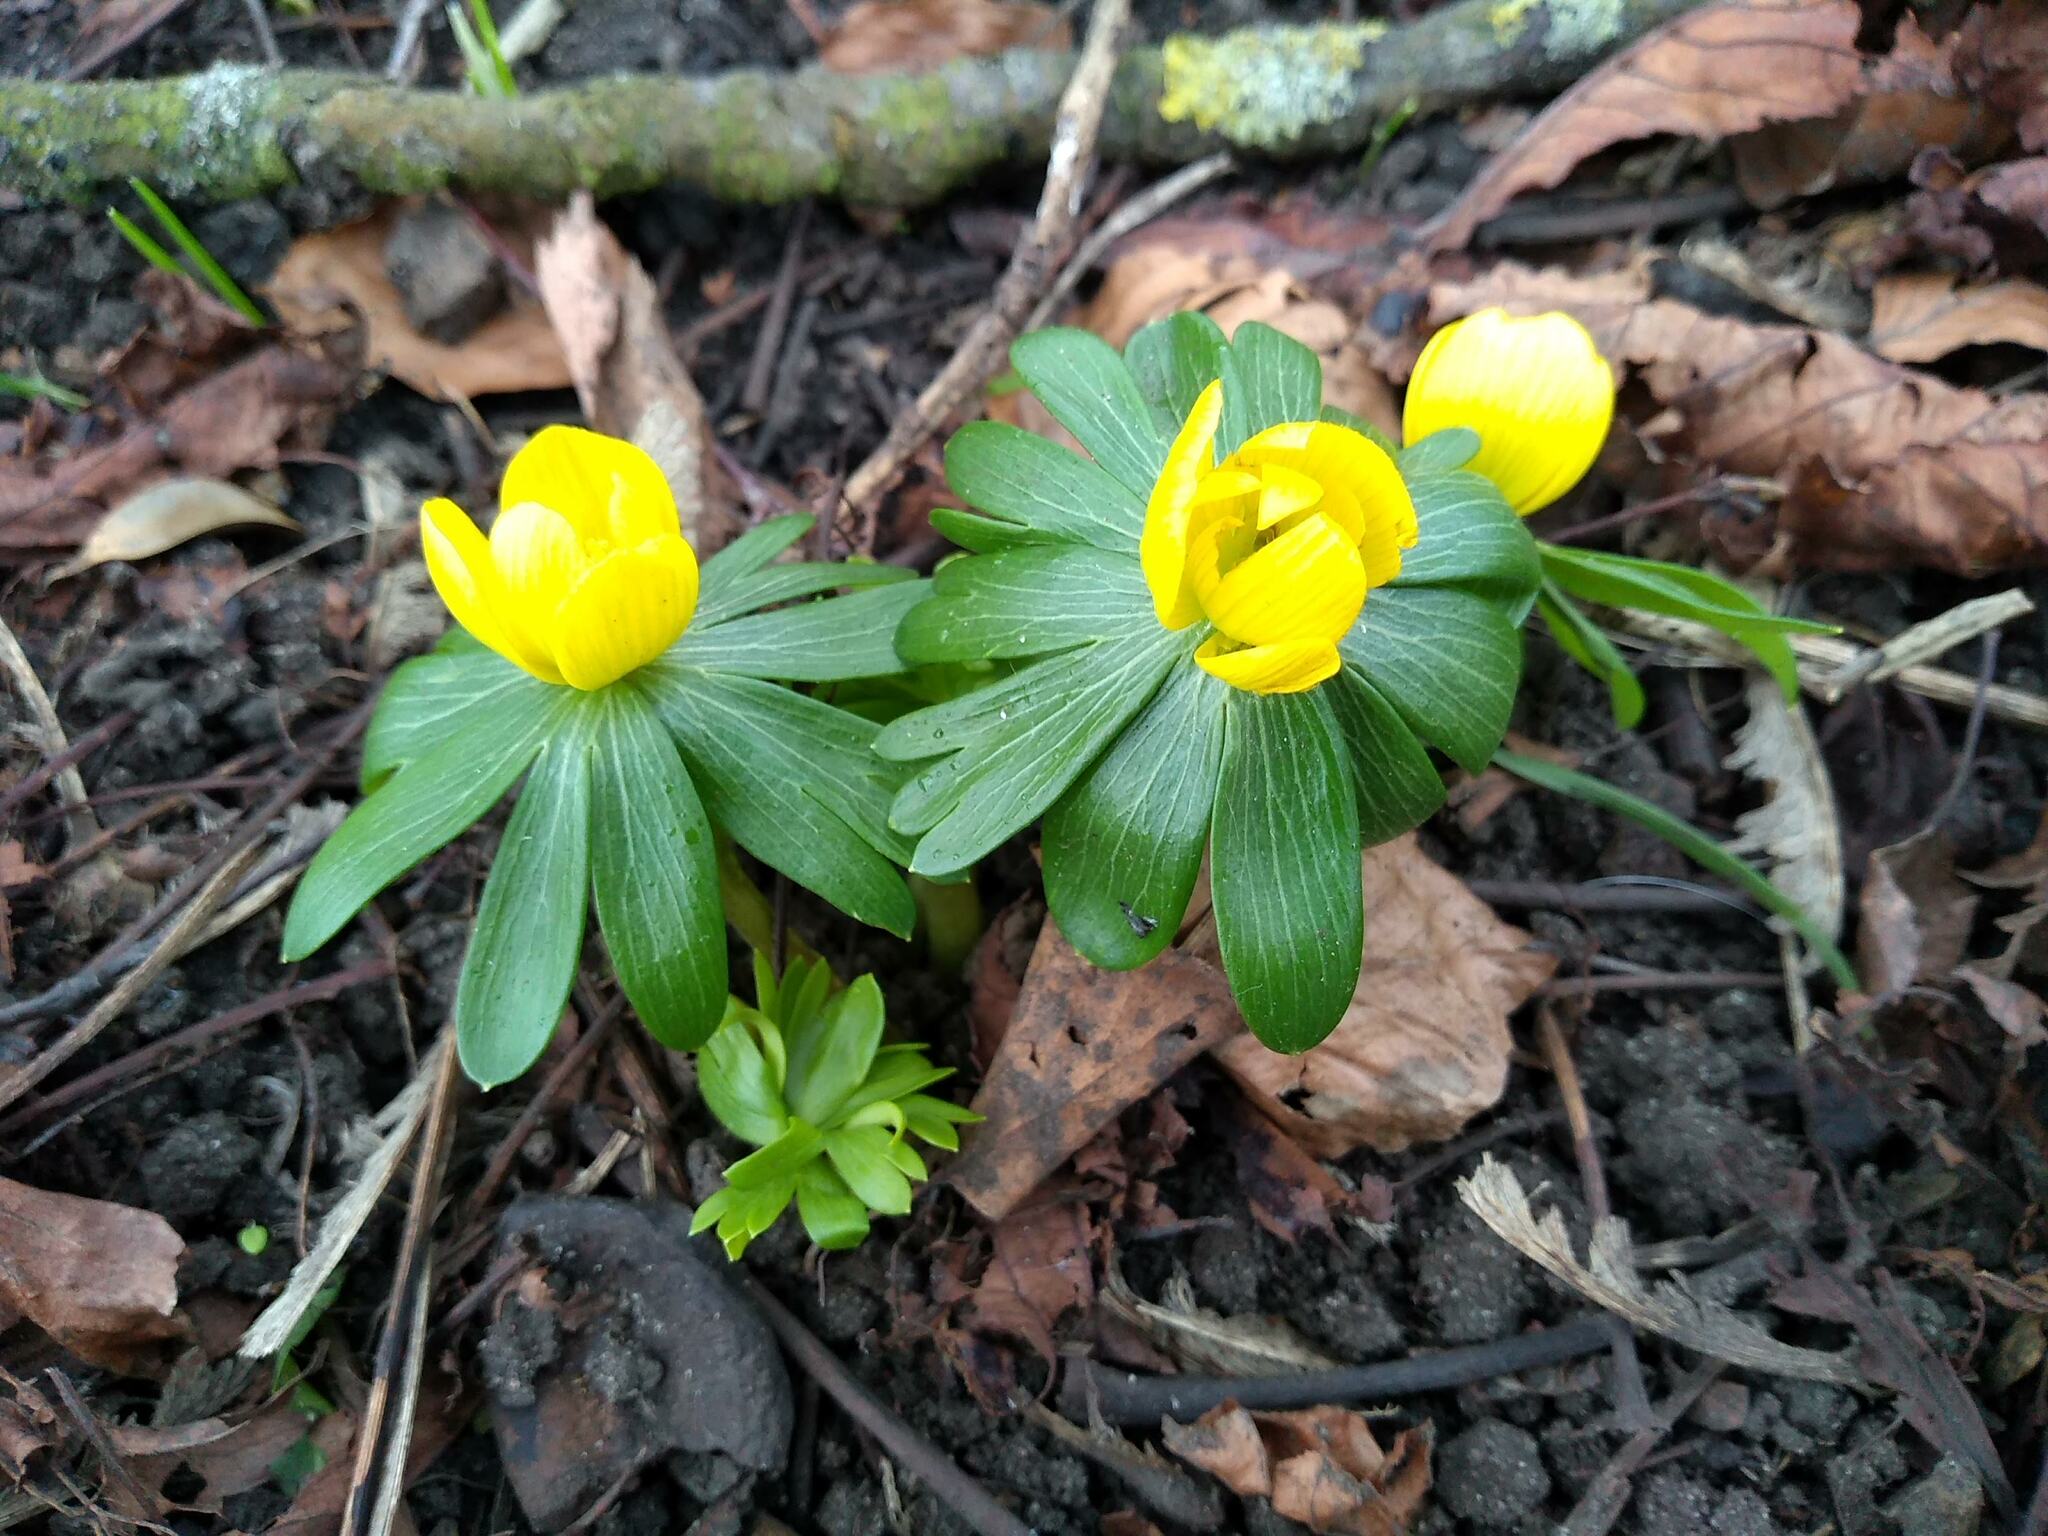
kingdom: Plantae
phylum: Tracheophyta
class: Magnoliopsida
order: Ranunculales
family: Ranunculaceae
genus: Eranthis
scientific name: Eranthis hyemalis
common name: Winter aconite
